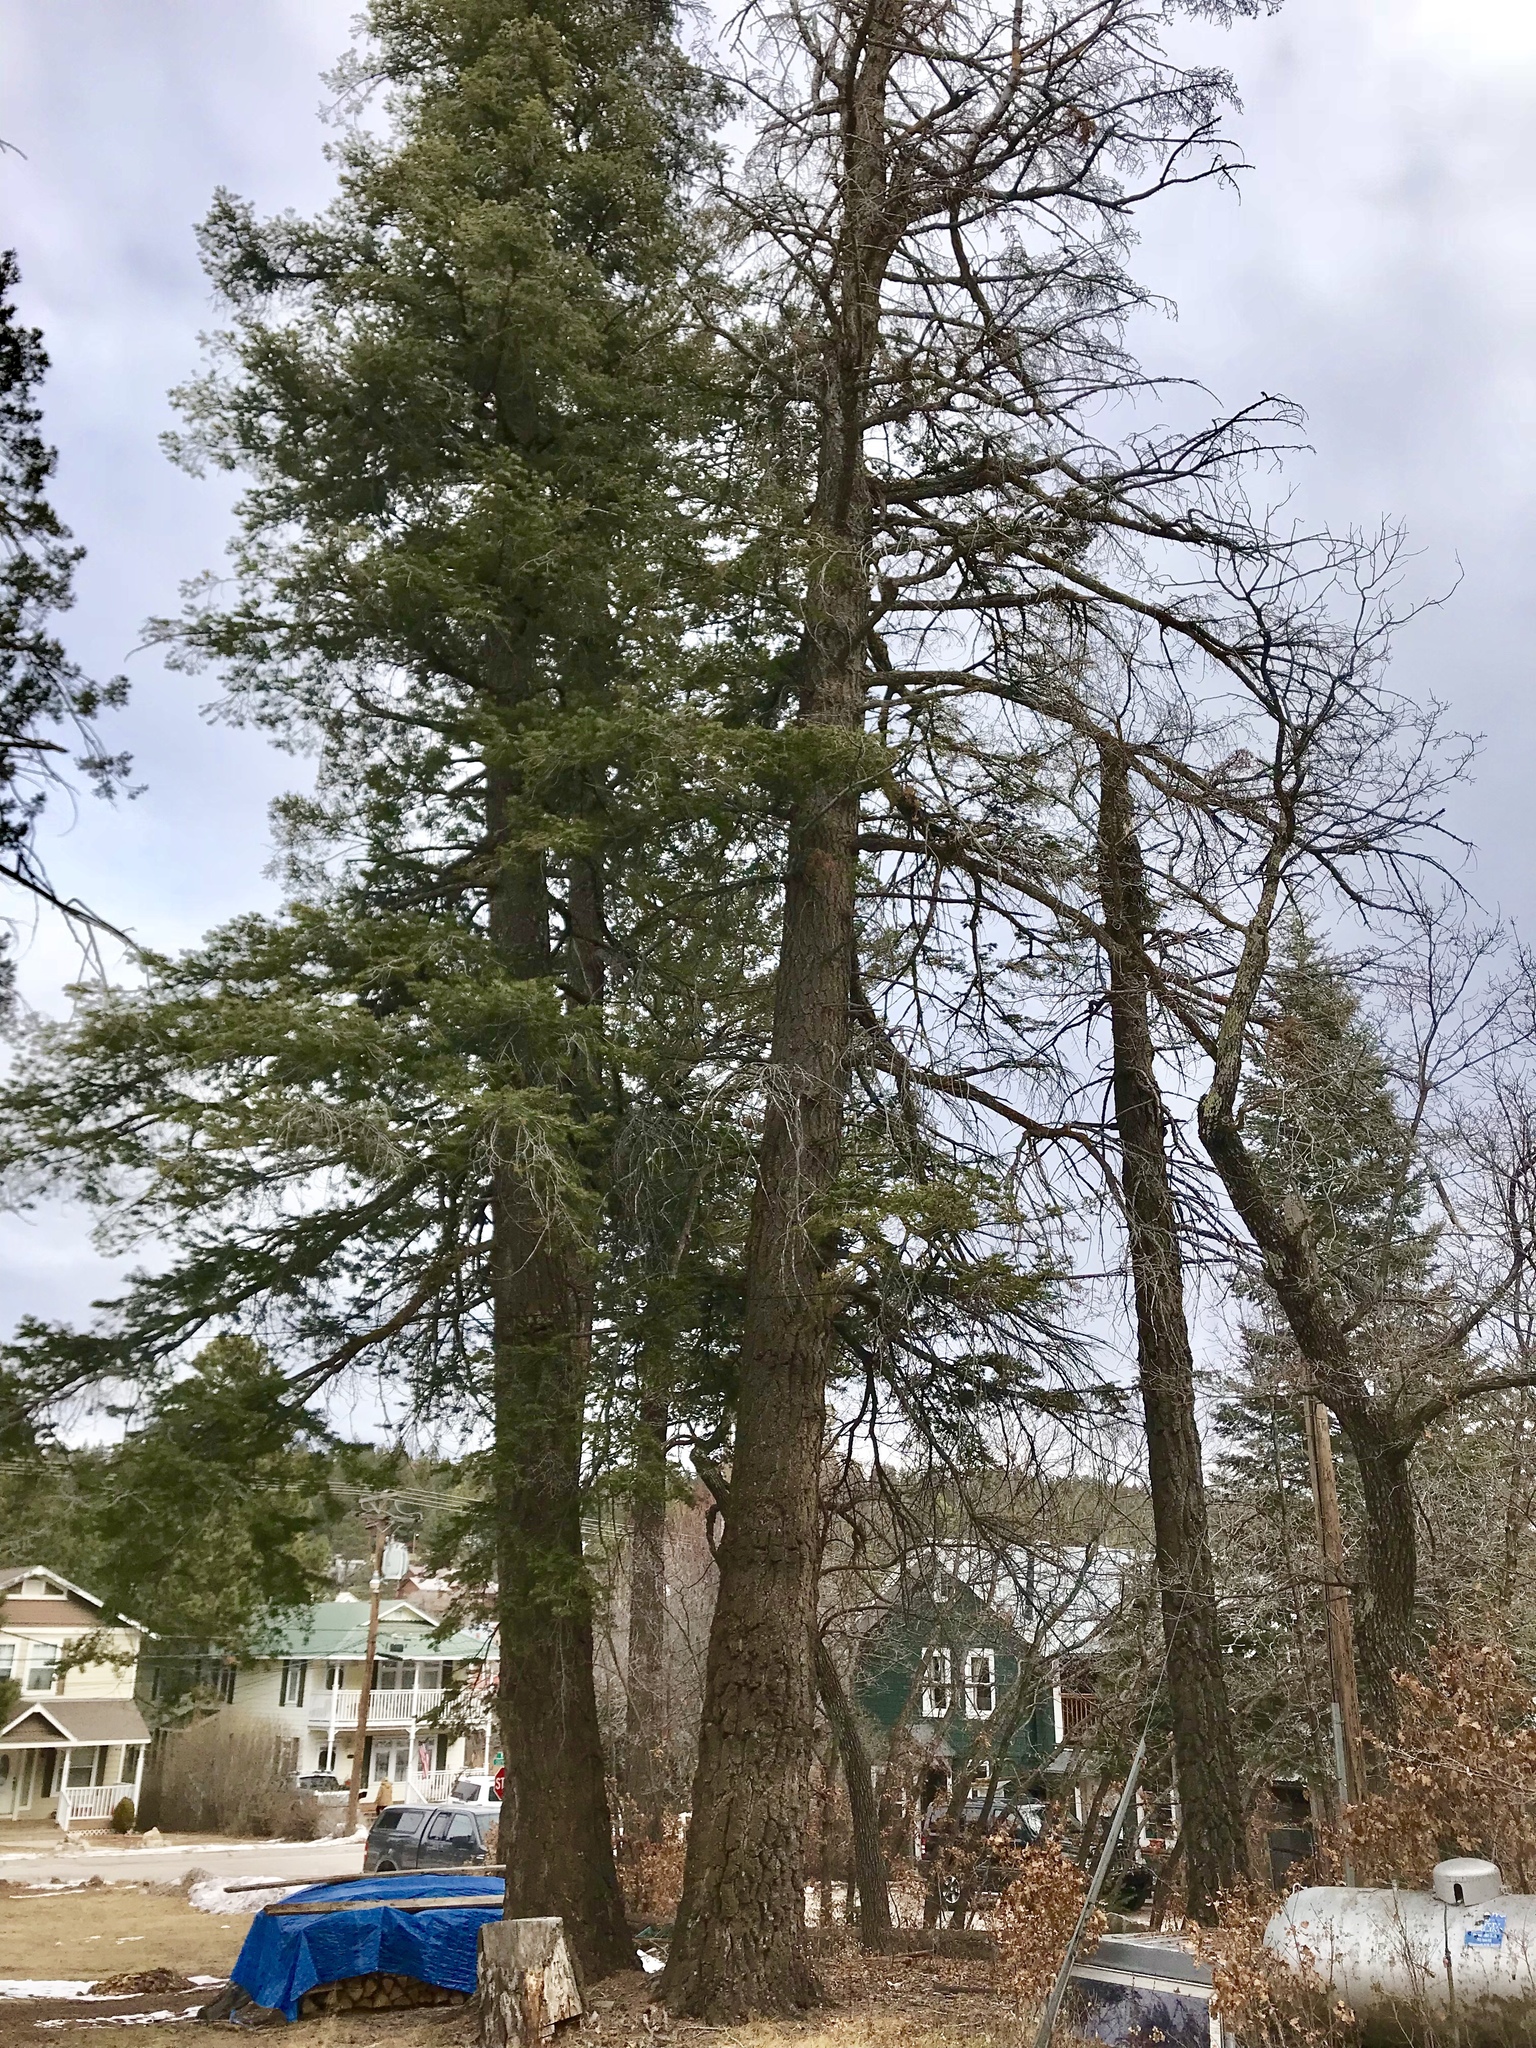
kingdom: Plantae
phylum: Tracheophyta
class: Pinopsida
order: Pinales
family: Pinaceae
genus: Pseudotsuga
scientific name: Pseudotsuga menziesii
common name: Douglas fir
